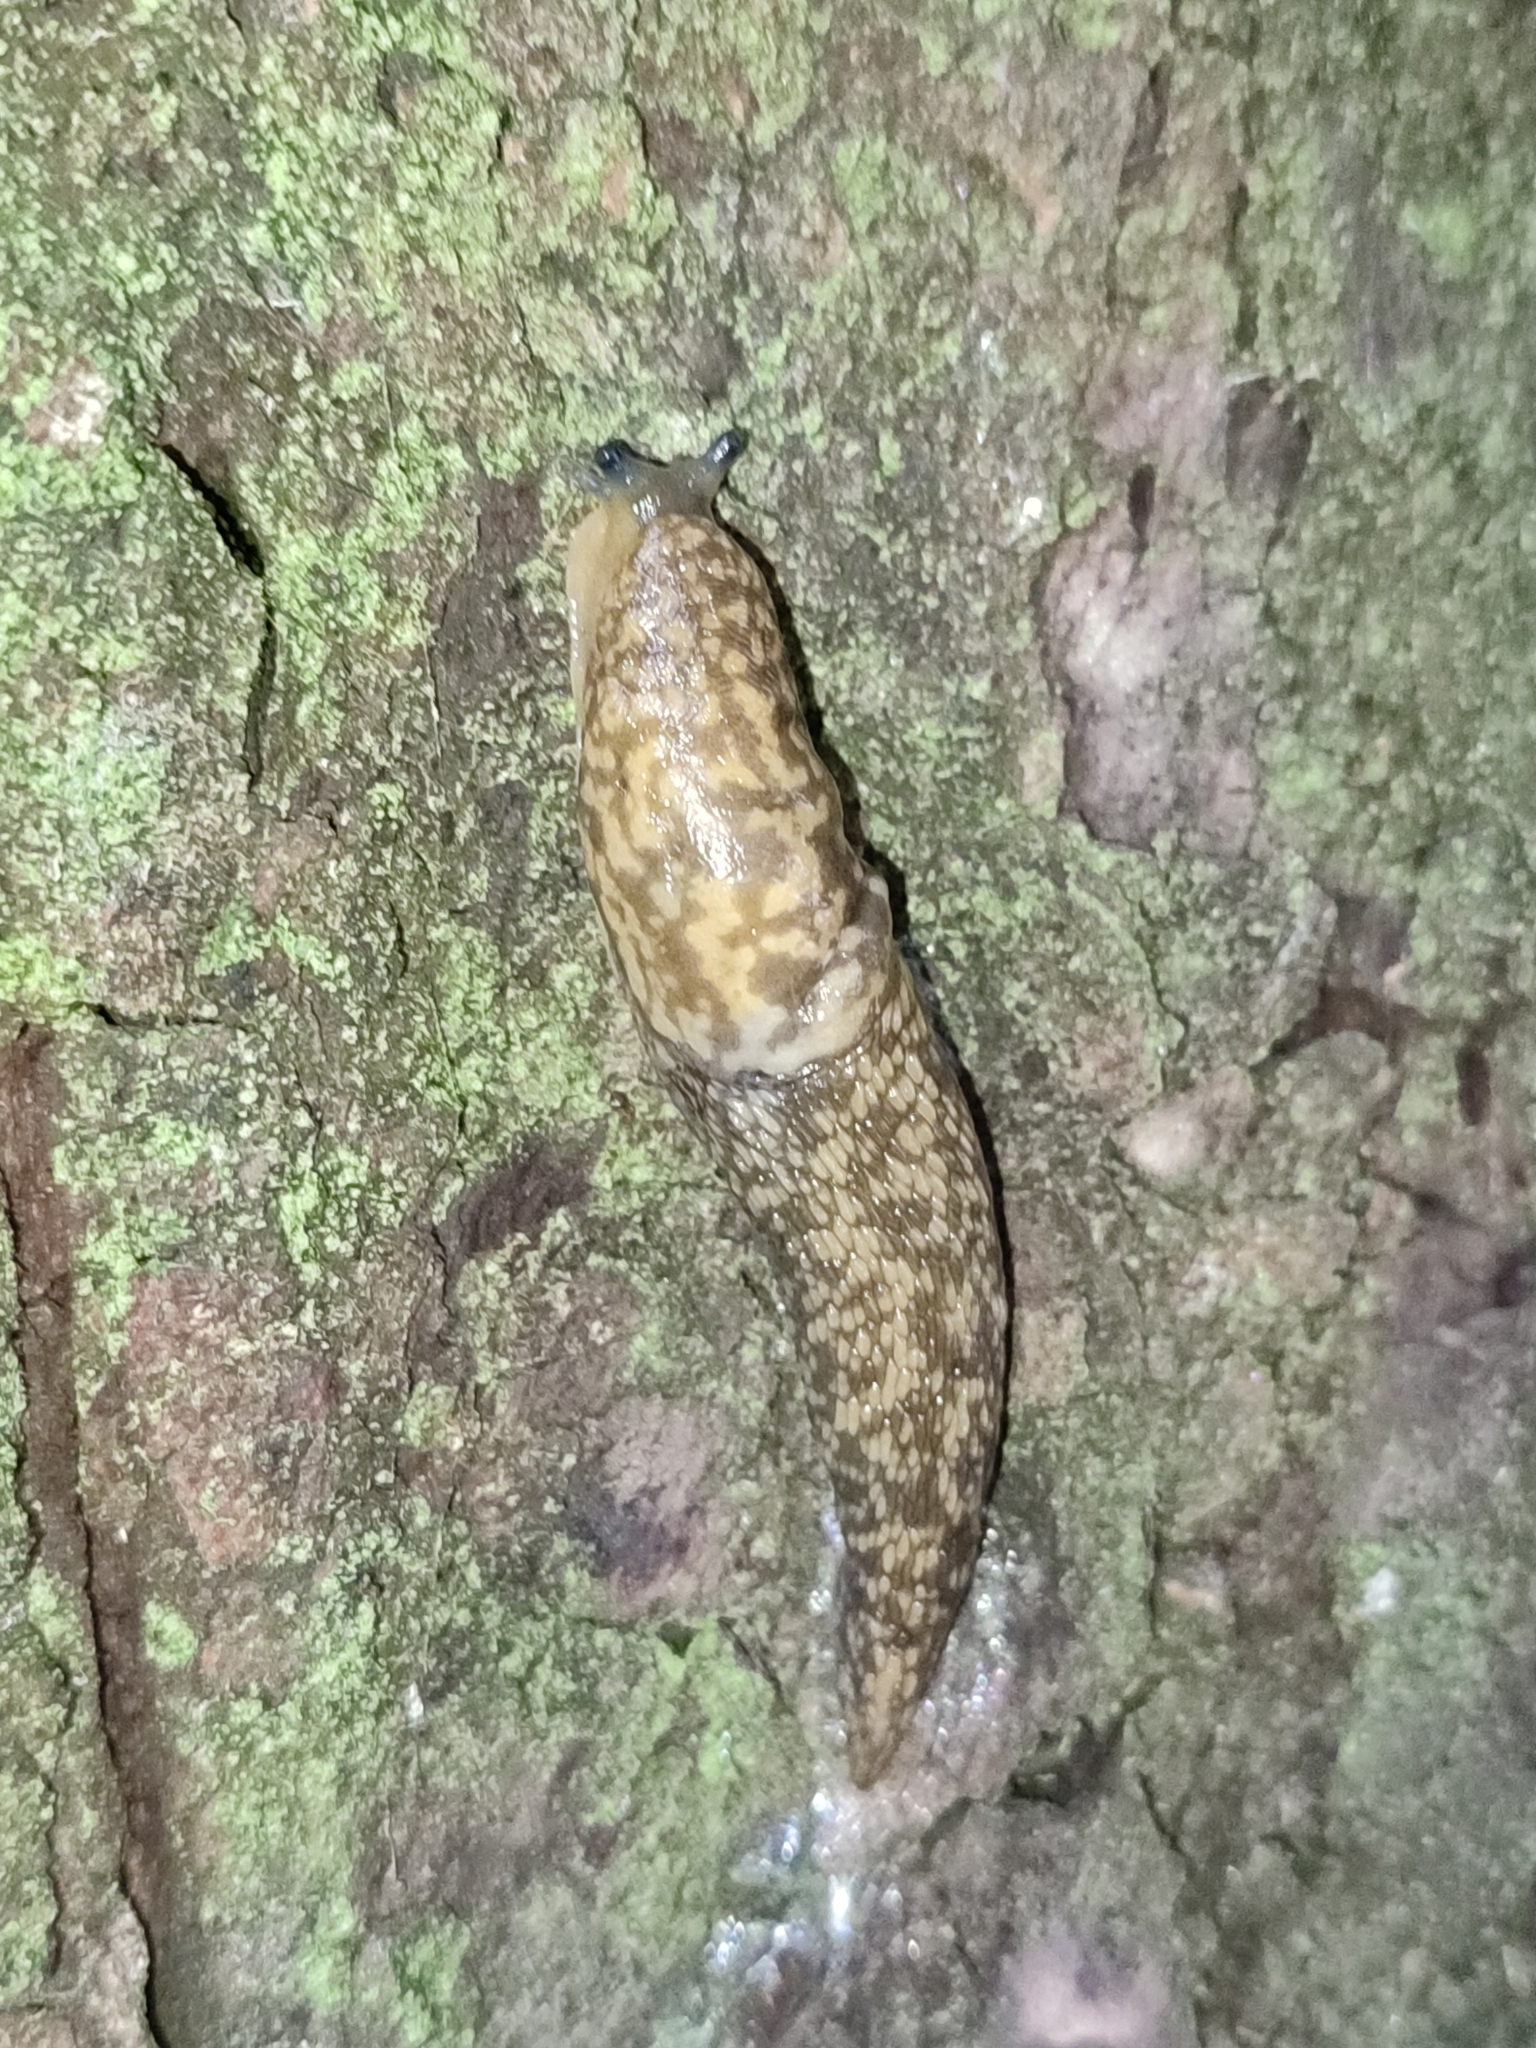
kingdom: Animalia
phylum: Mollusca
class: Gastropoda
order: Stylommatophora
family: Limacidae
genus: Limacus
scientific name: Limacus
